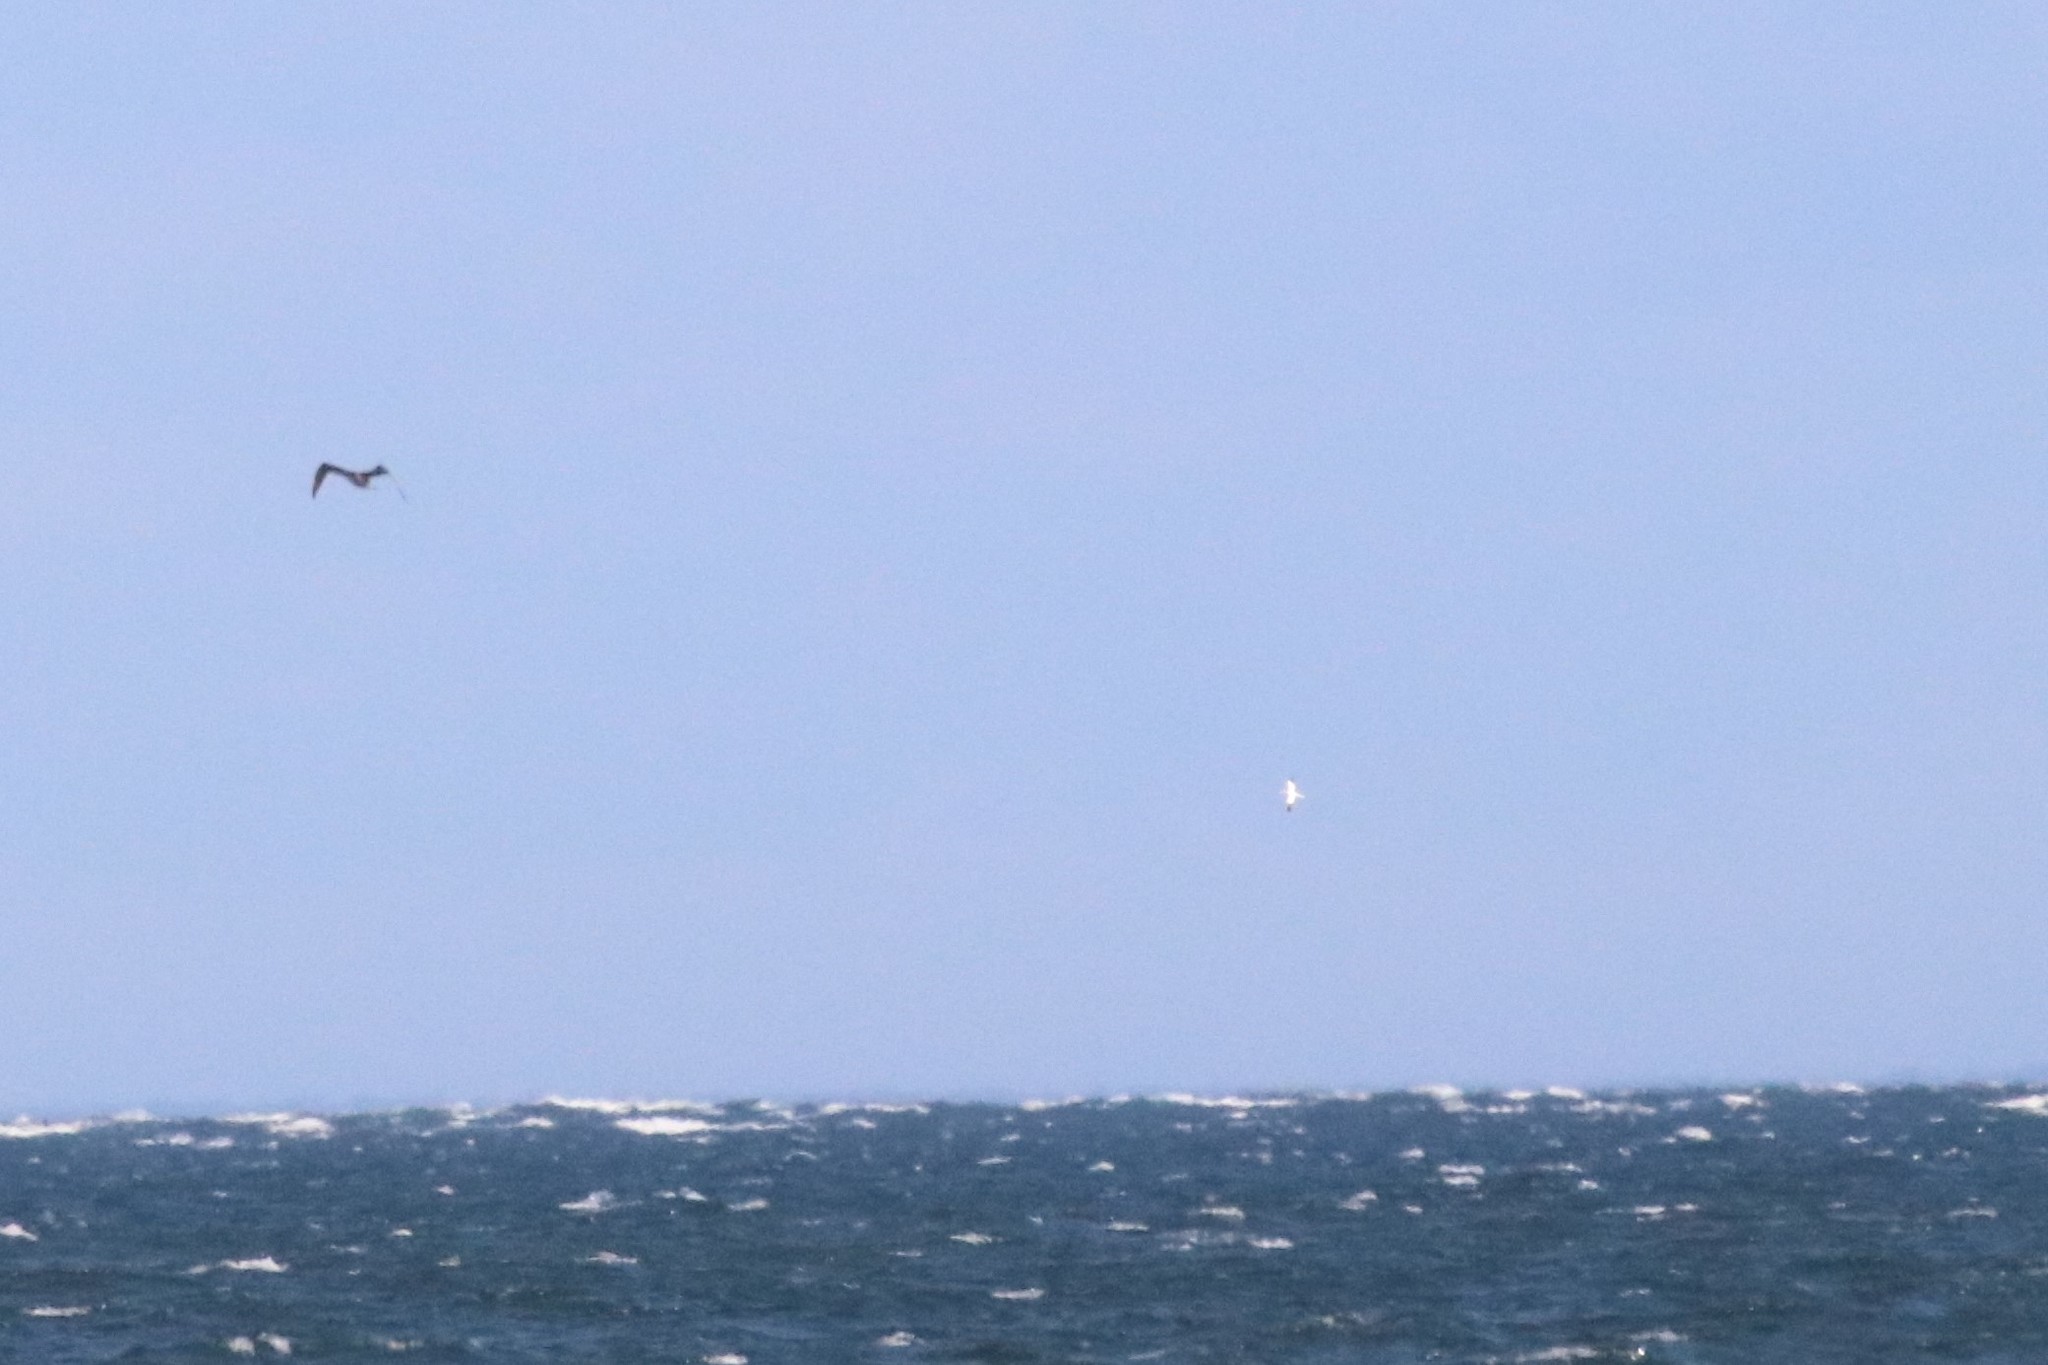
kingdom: Animalia
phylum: Chordata
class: Aves
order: Suliformes
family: Sulidae
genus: Morus
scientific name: Morus bassanus
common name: Northern gannet
